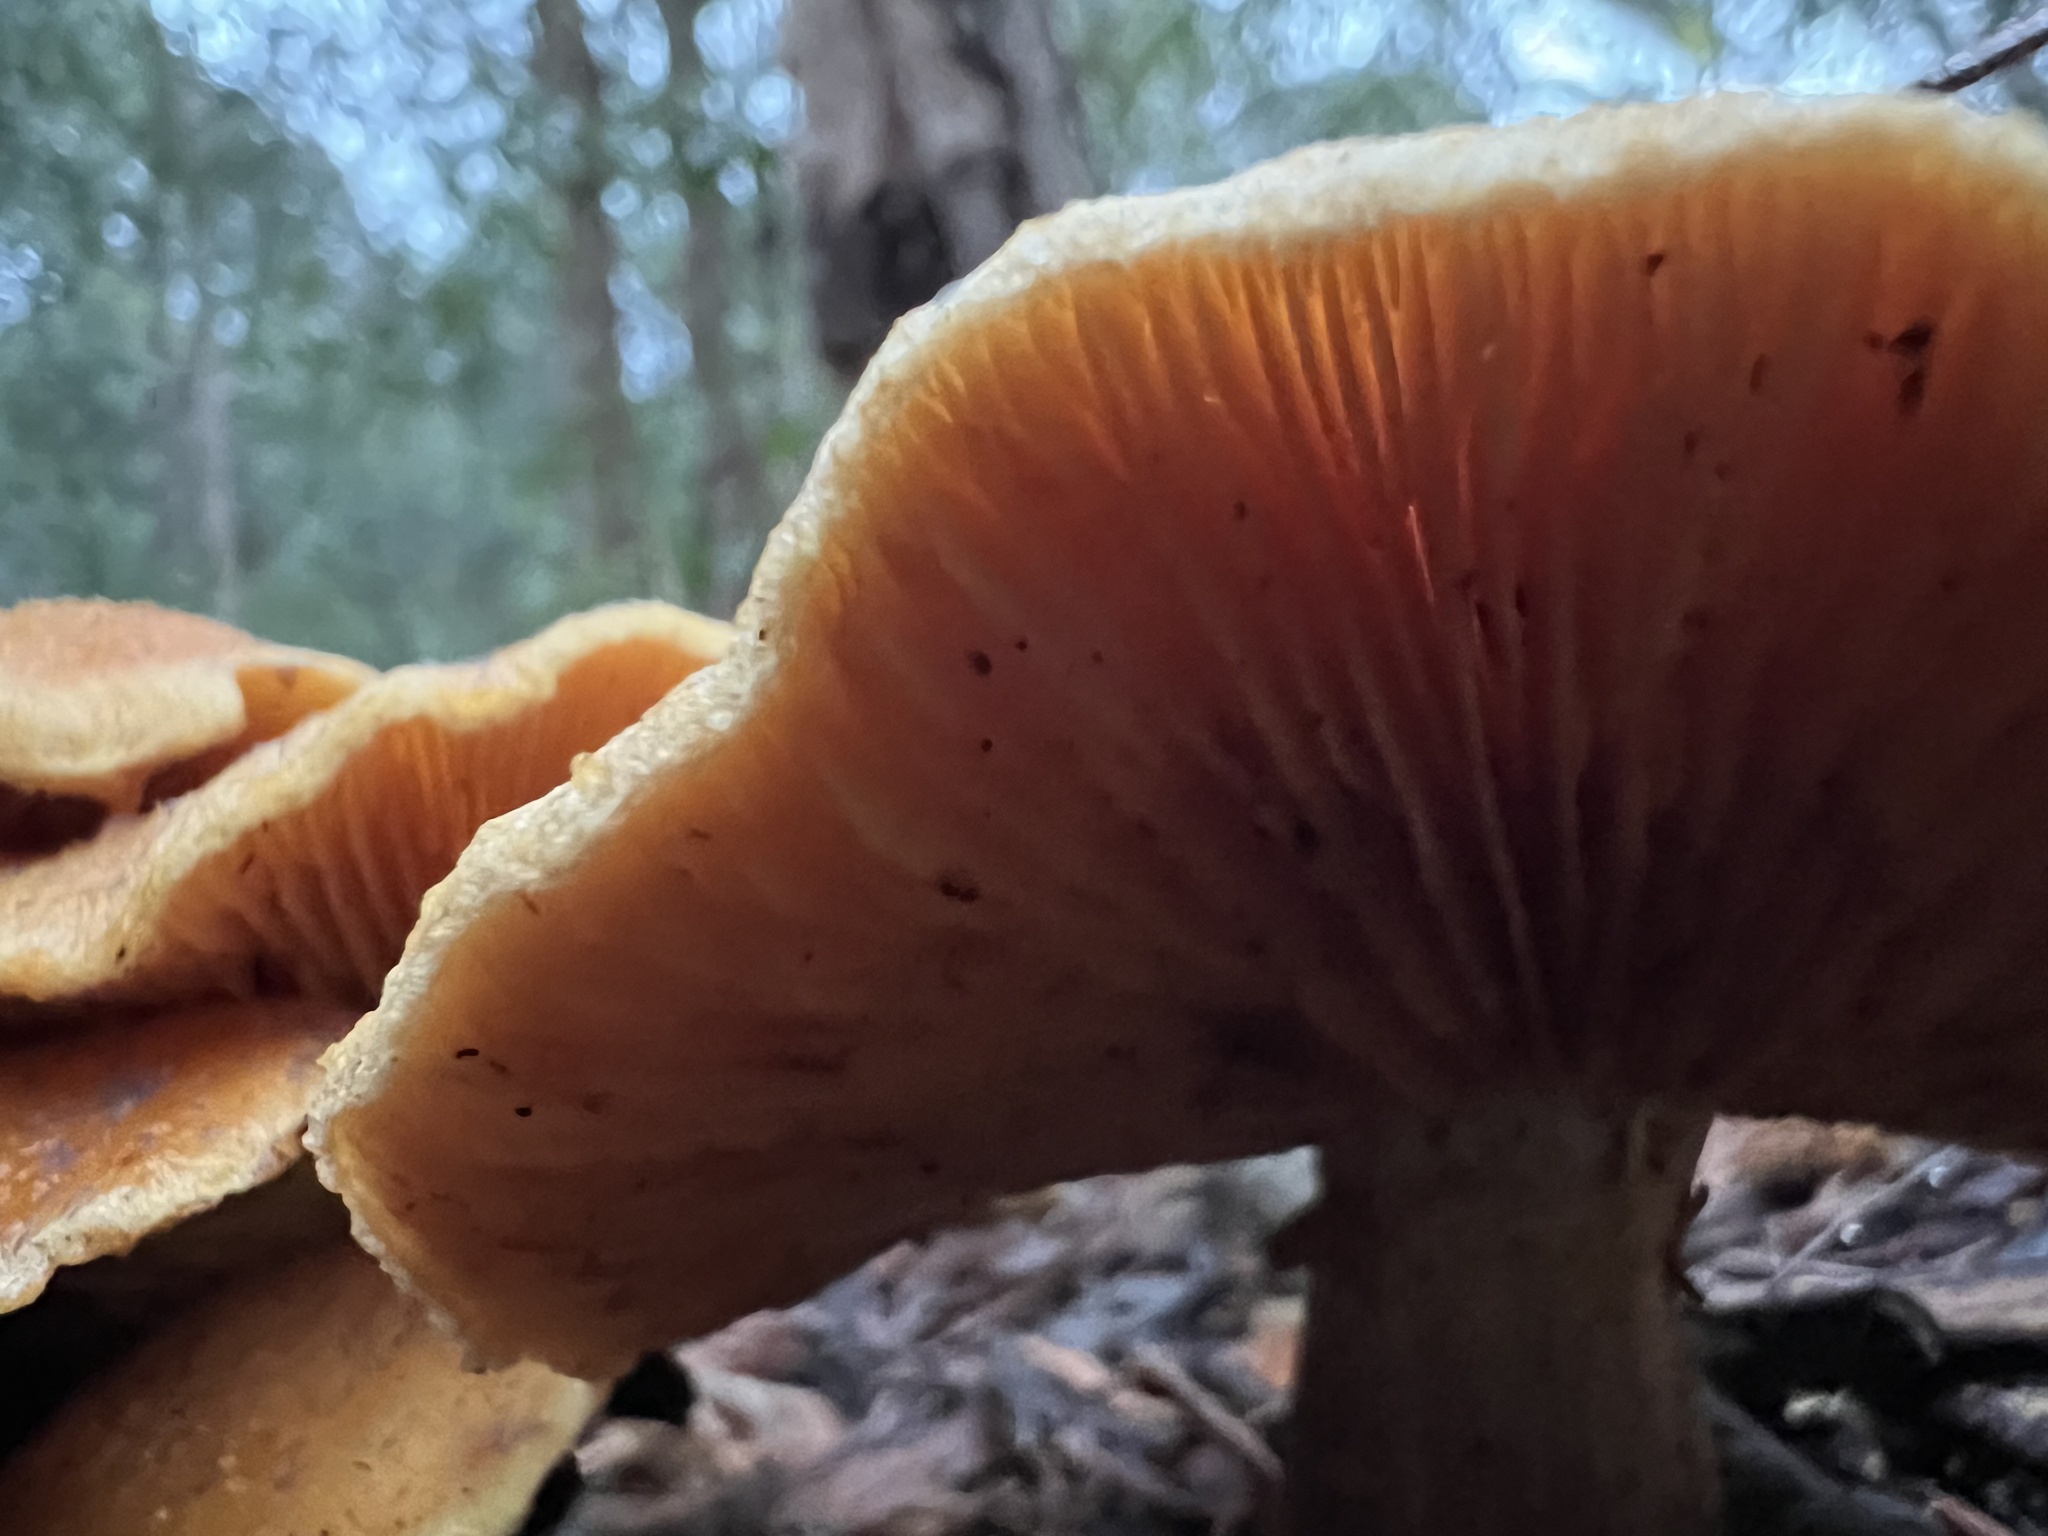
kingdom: Fungi
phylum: Basidiomycota
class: Agaricomycetes
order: Agaricales
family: Hymenogastraceae
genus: Gymnopilus
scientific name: Gymnopilus junonius
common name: Spectacular rustgill
